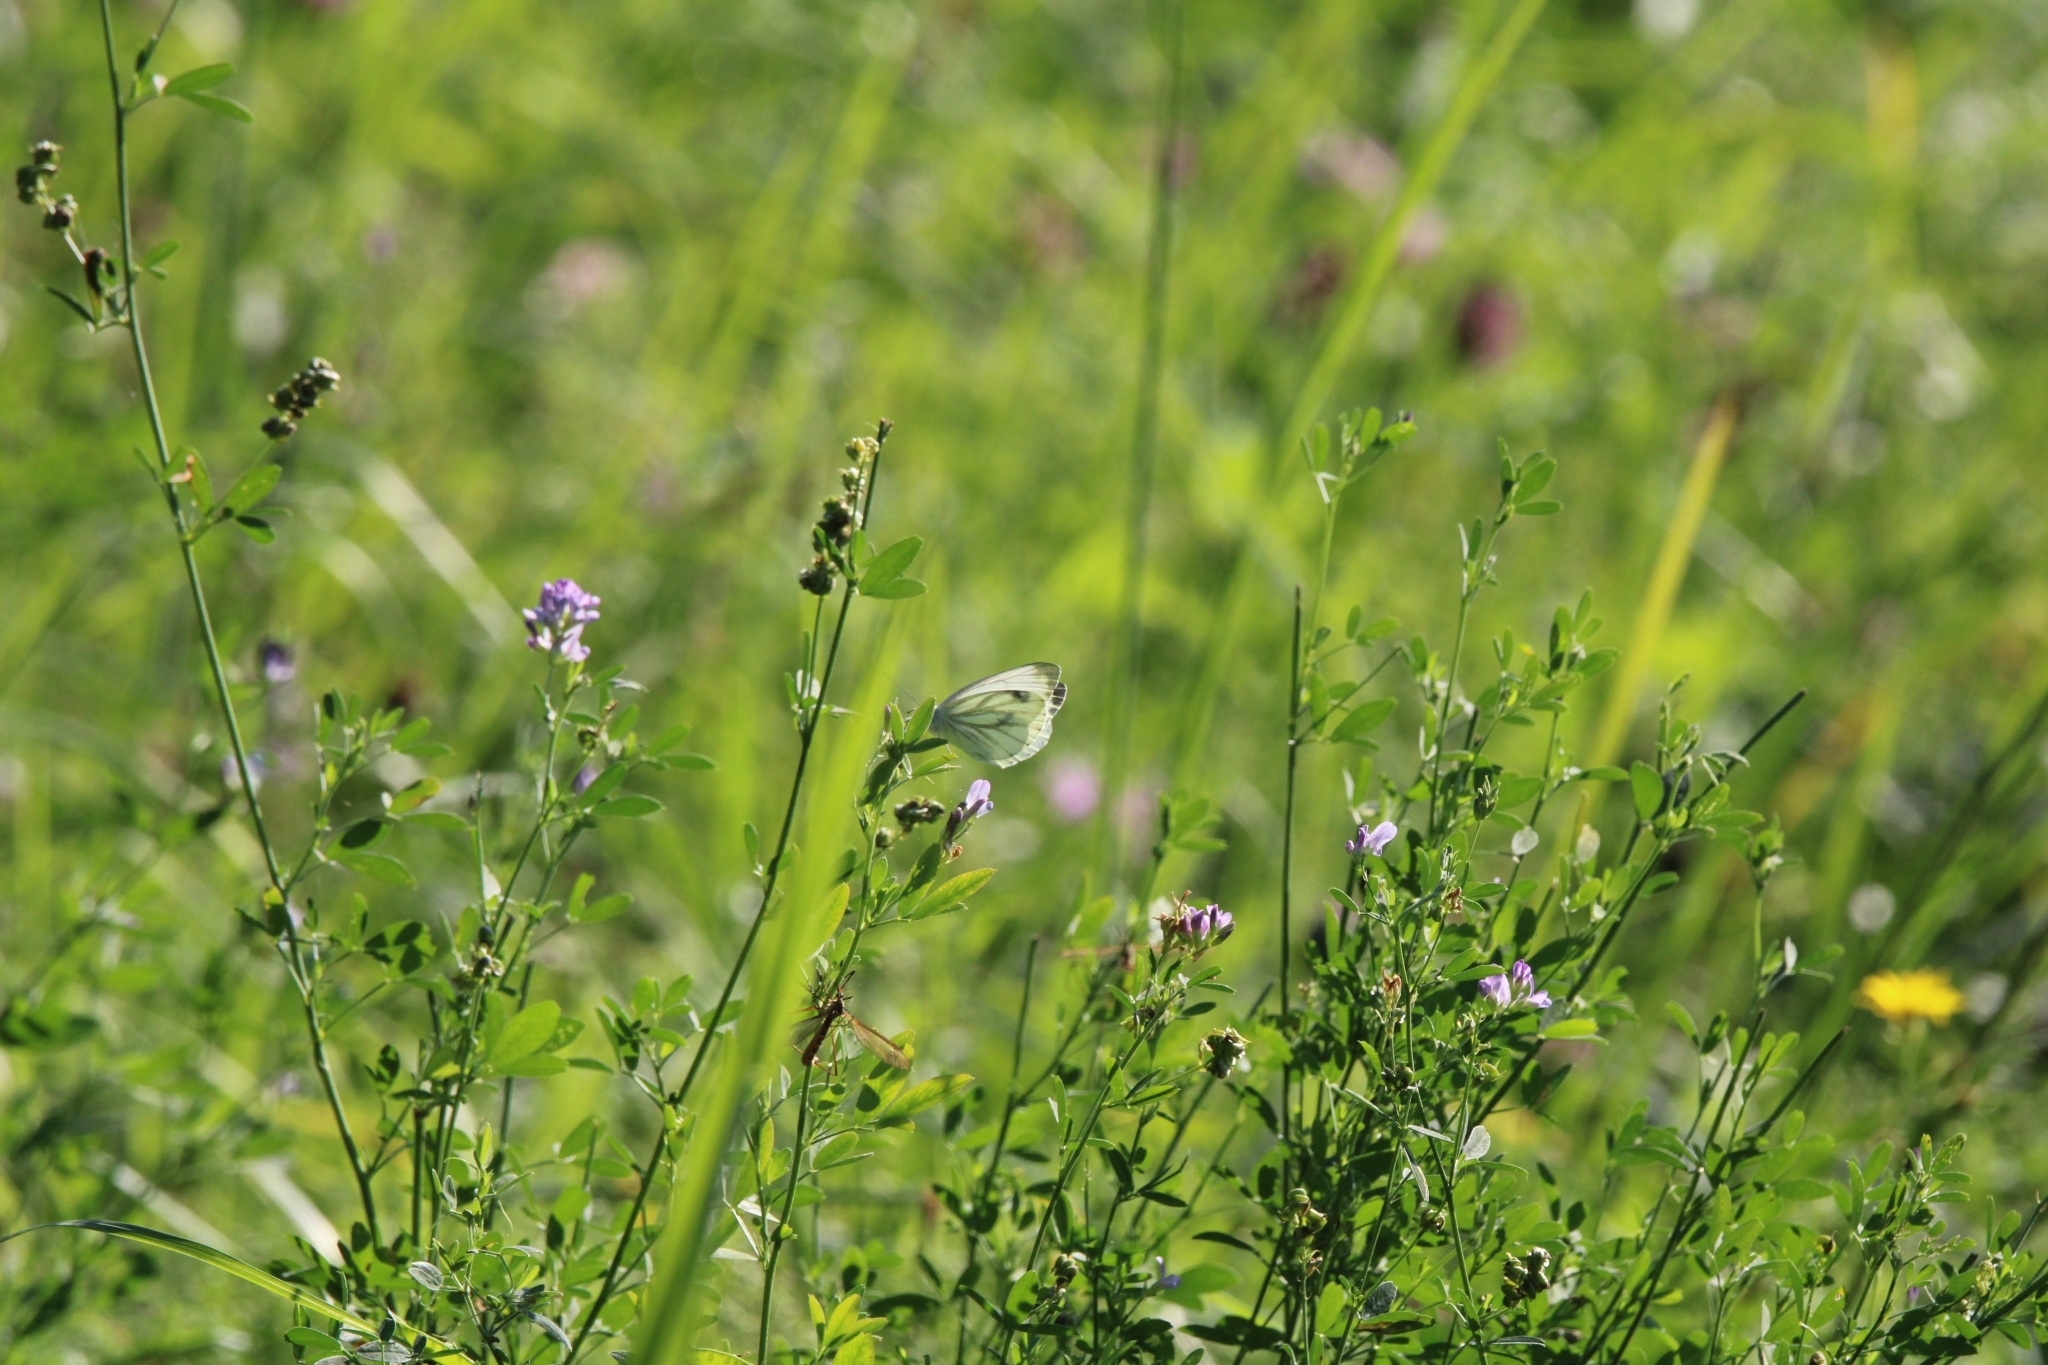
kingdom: Animalia
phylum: Arthropoda
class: Insecta
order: Lepidoptera
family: Pieridae
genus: Pieris
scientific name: Pieris napi
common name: Green-veined white
